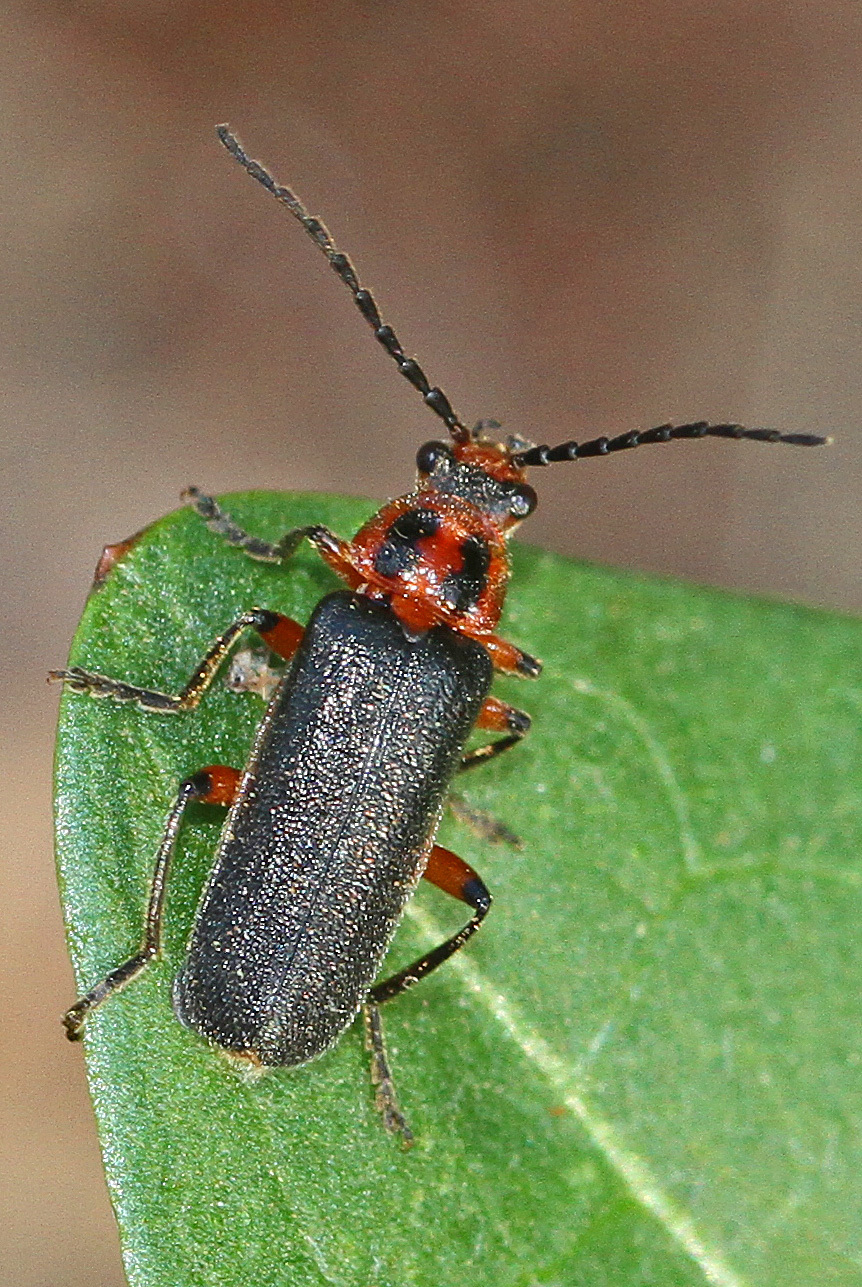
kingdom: Animalia
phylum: Arthropoda
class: Insecta
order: Coleoptera
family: Cantharidae
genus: Atalantycha
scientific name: Atalantycha bilineata
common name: Two-lined leatherwing
